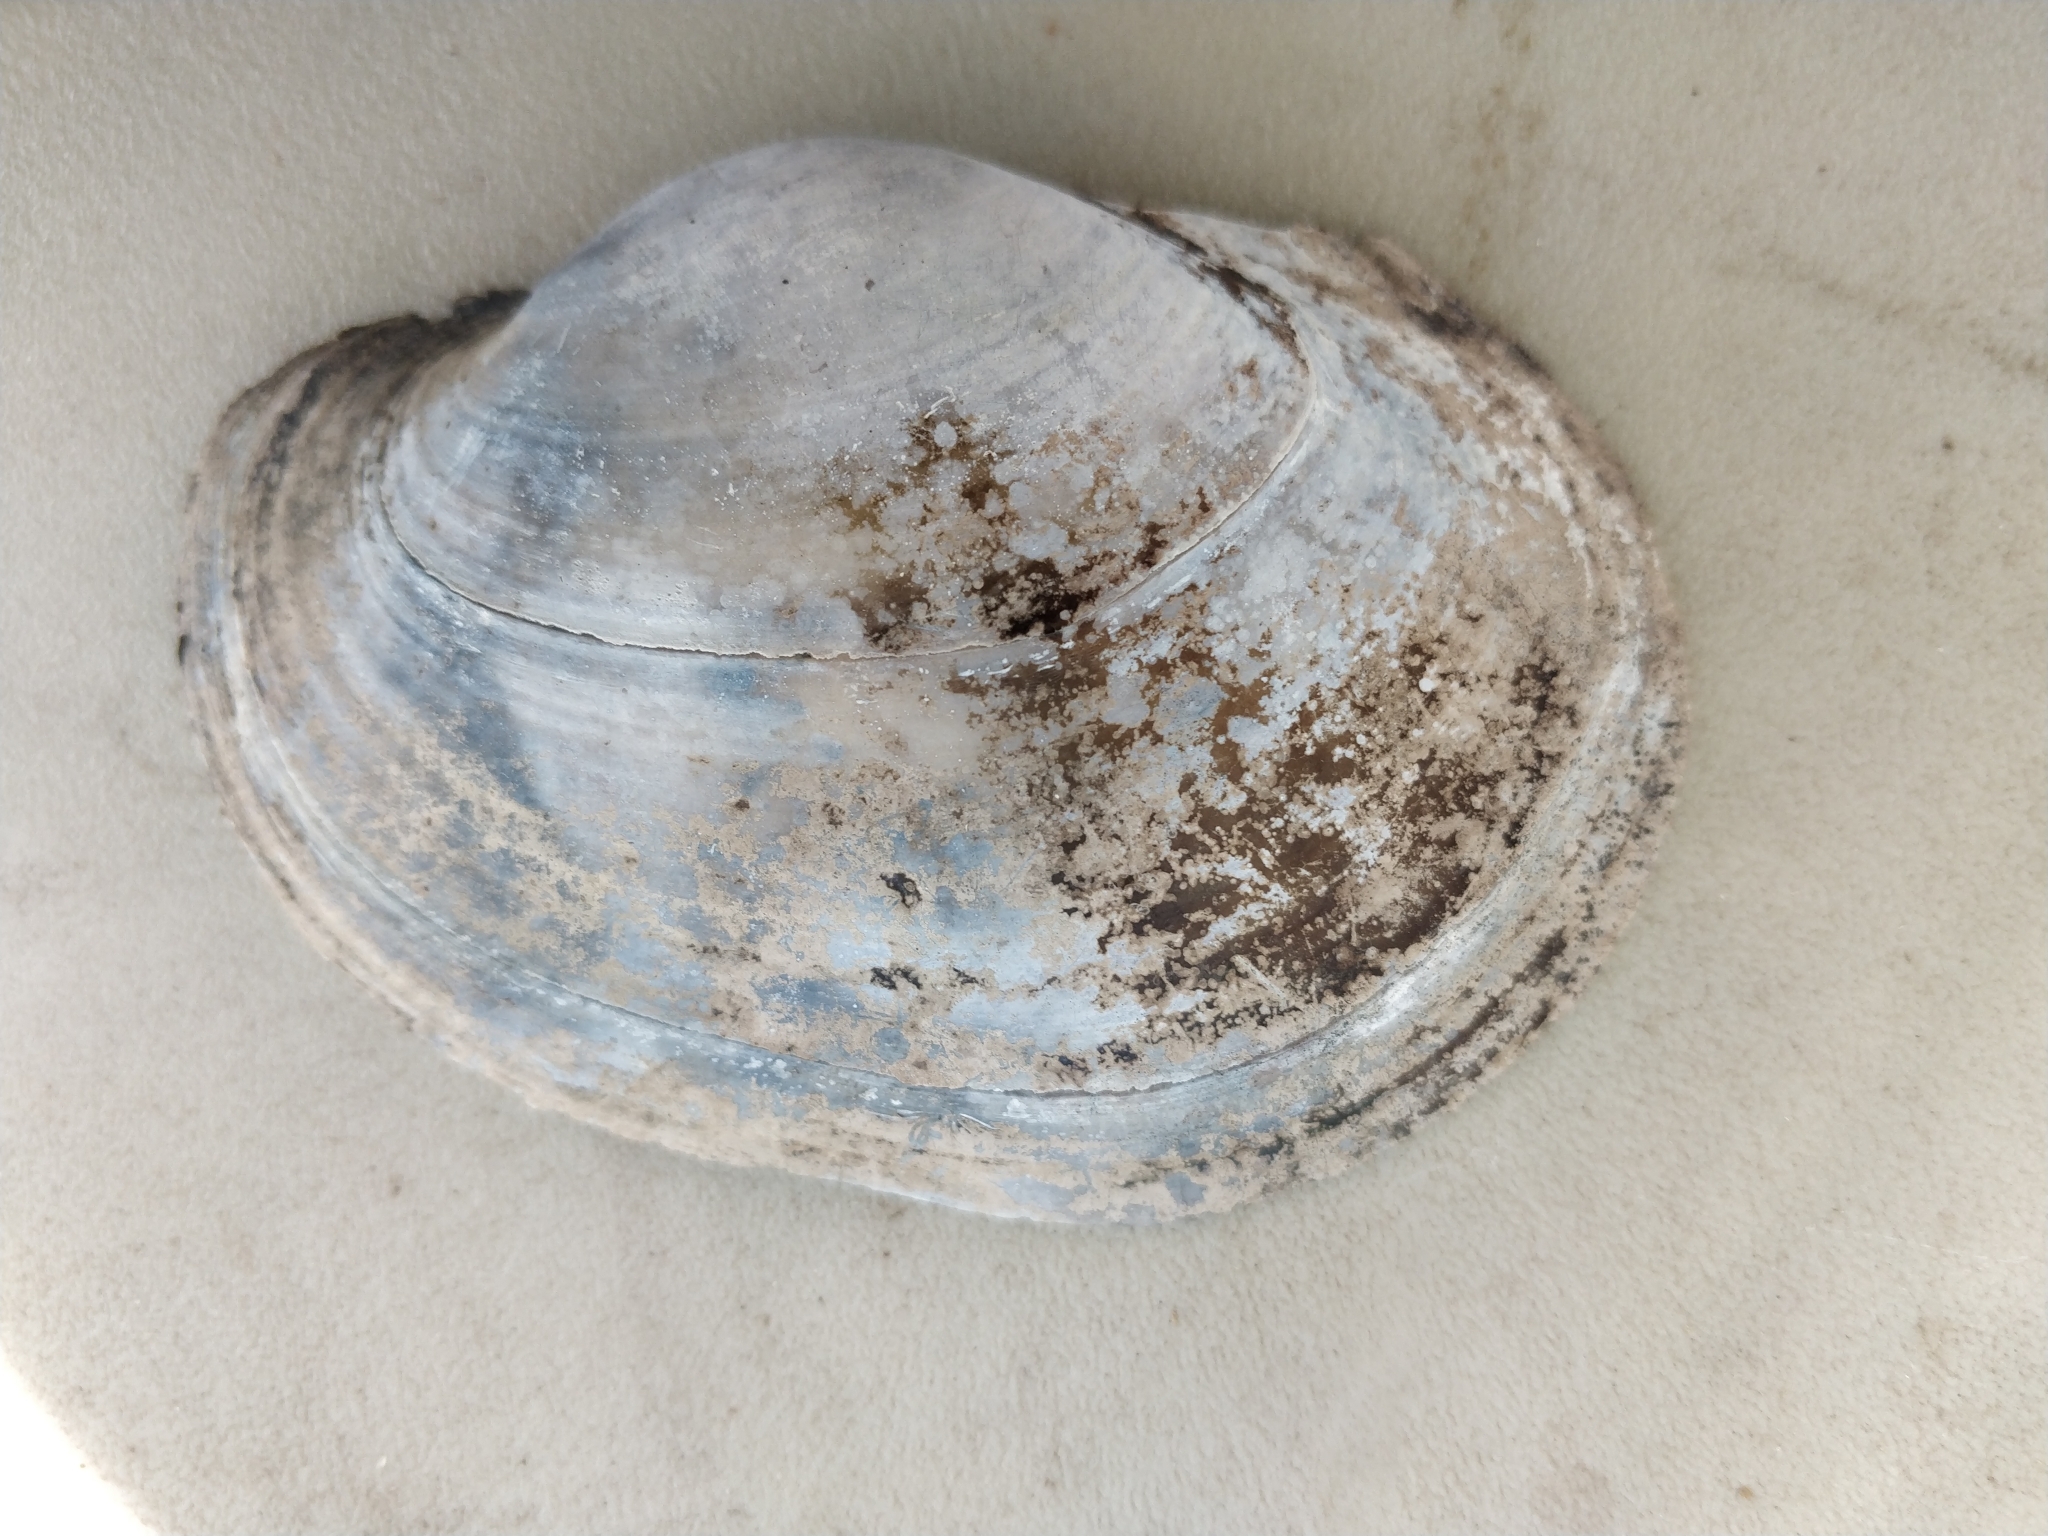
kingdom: Animalia
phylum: Mollusca
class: Bivalvia
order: Unionida
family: Unionidae
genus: Lampsilis
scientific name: Lampsilis cardium
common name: Plain pocketbook
